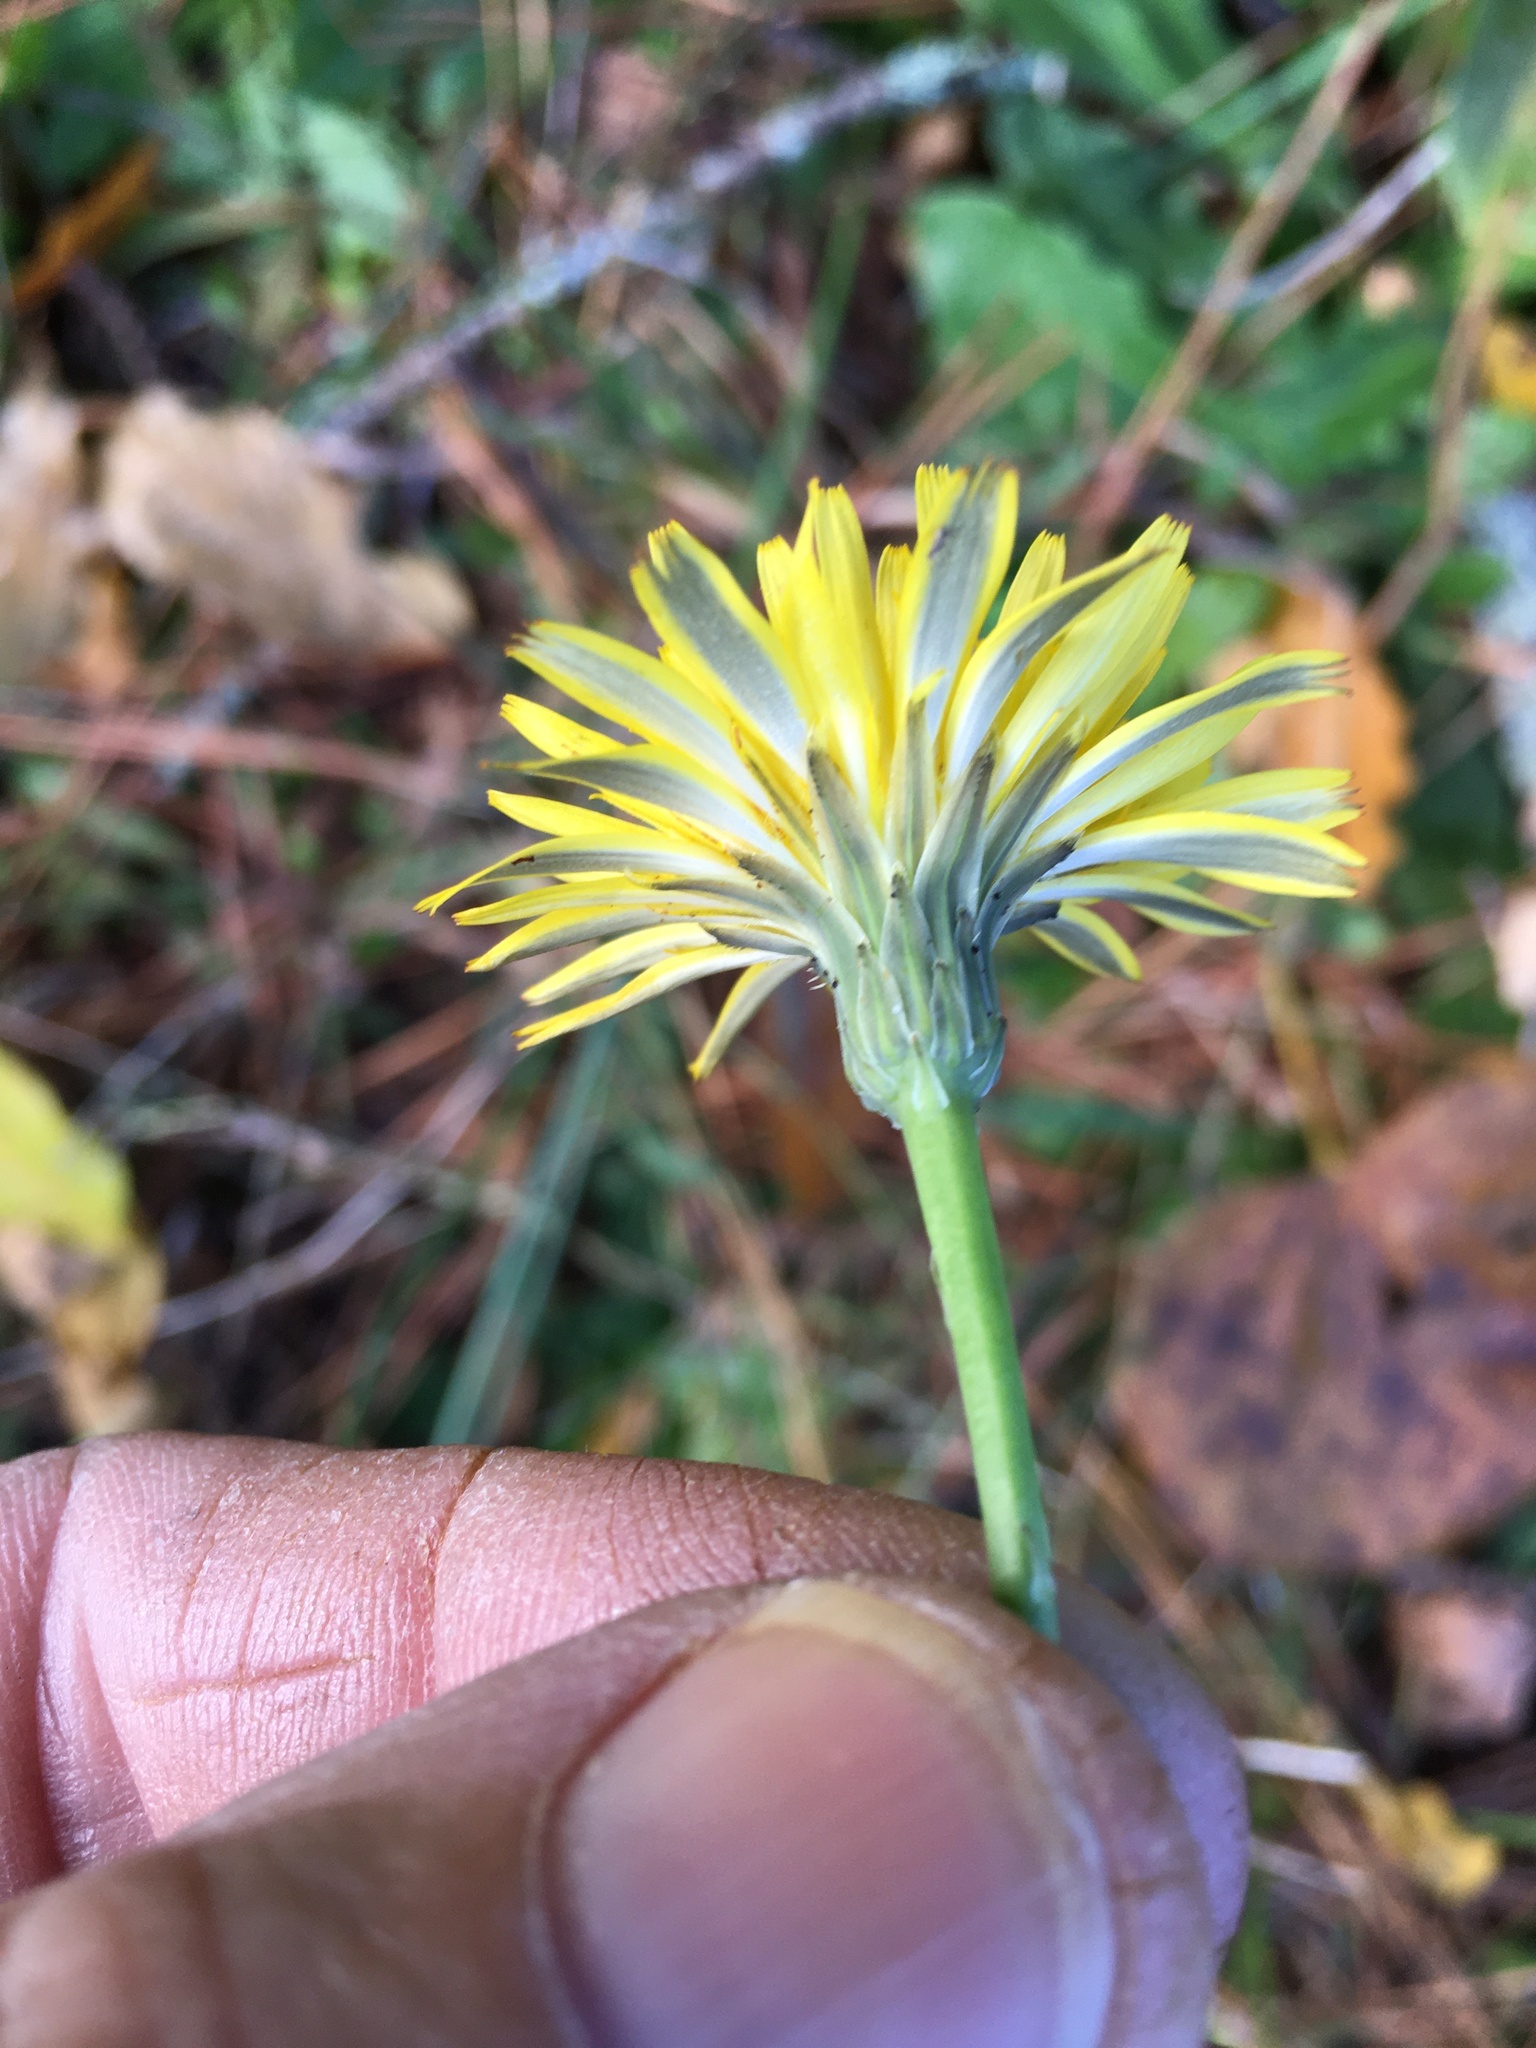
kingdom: Plantae
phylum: Tracheophyta
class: Magnoliopsida
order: Asterales
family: Asteraceae
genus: Hypochaeris
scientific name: Hypochaeris radicata
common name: Flatweed
